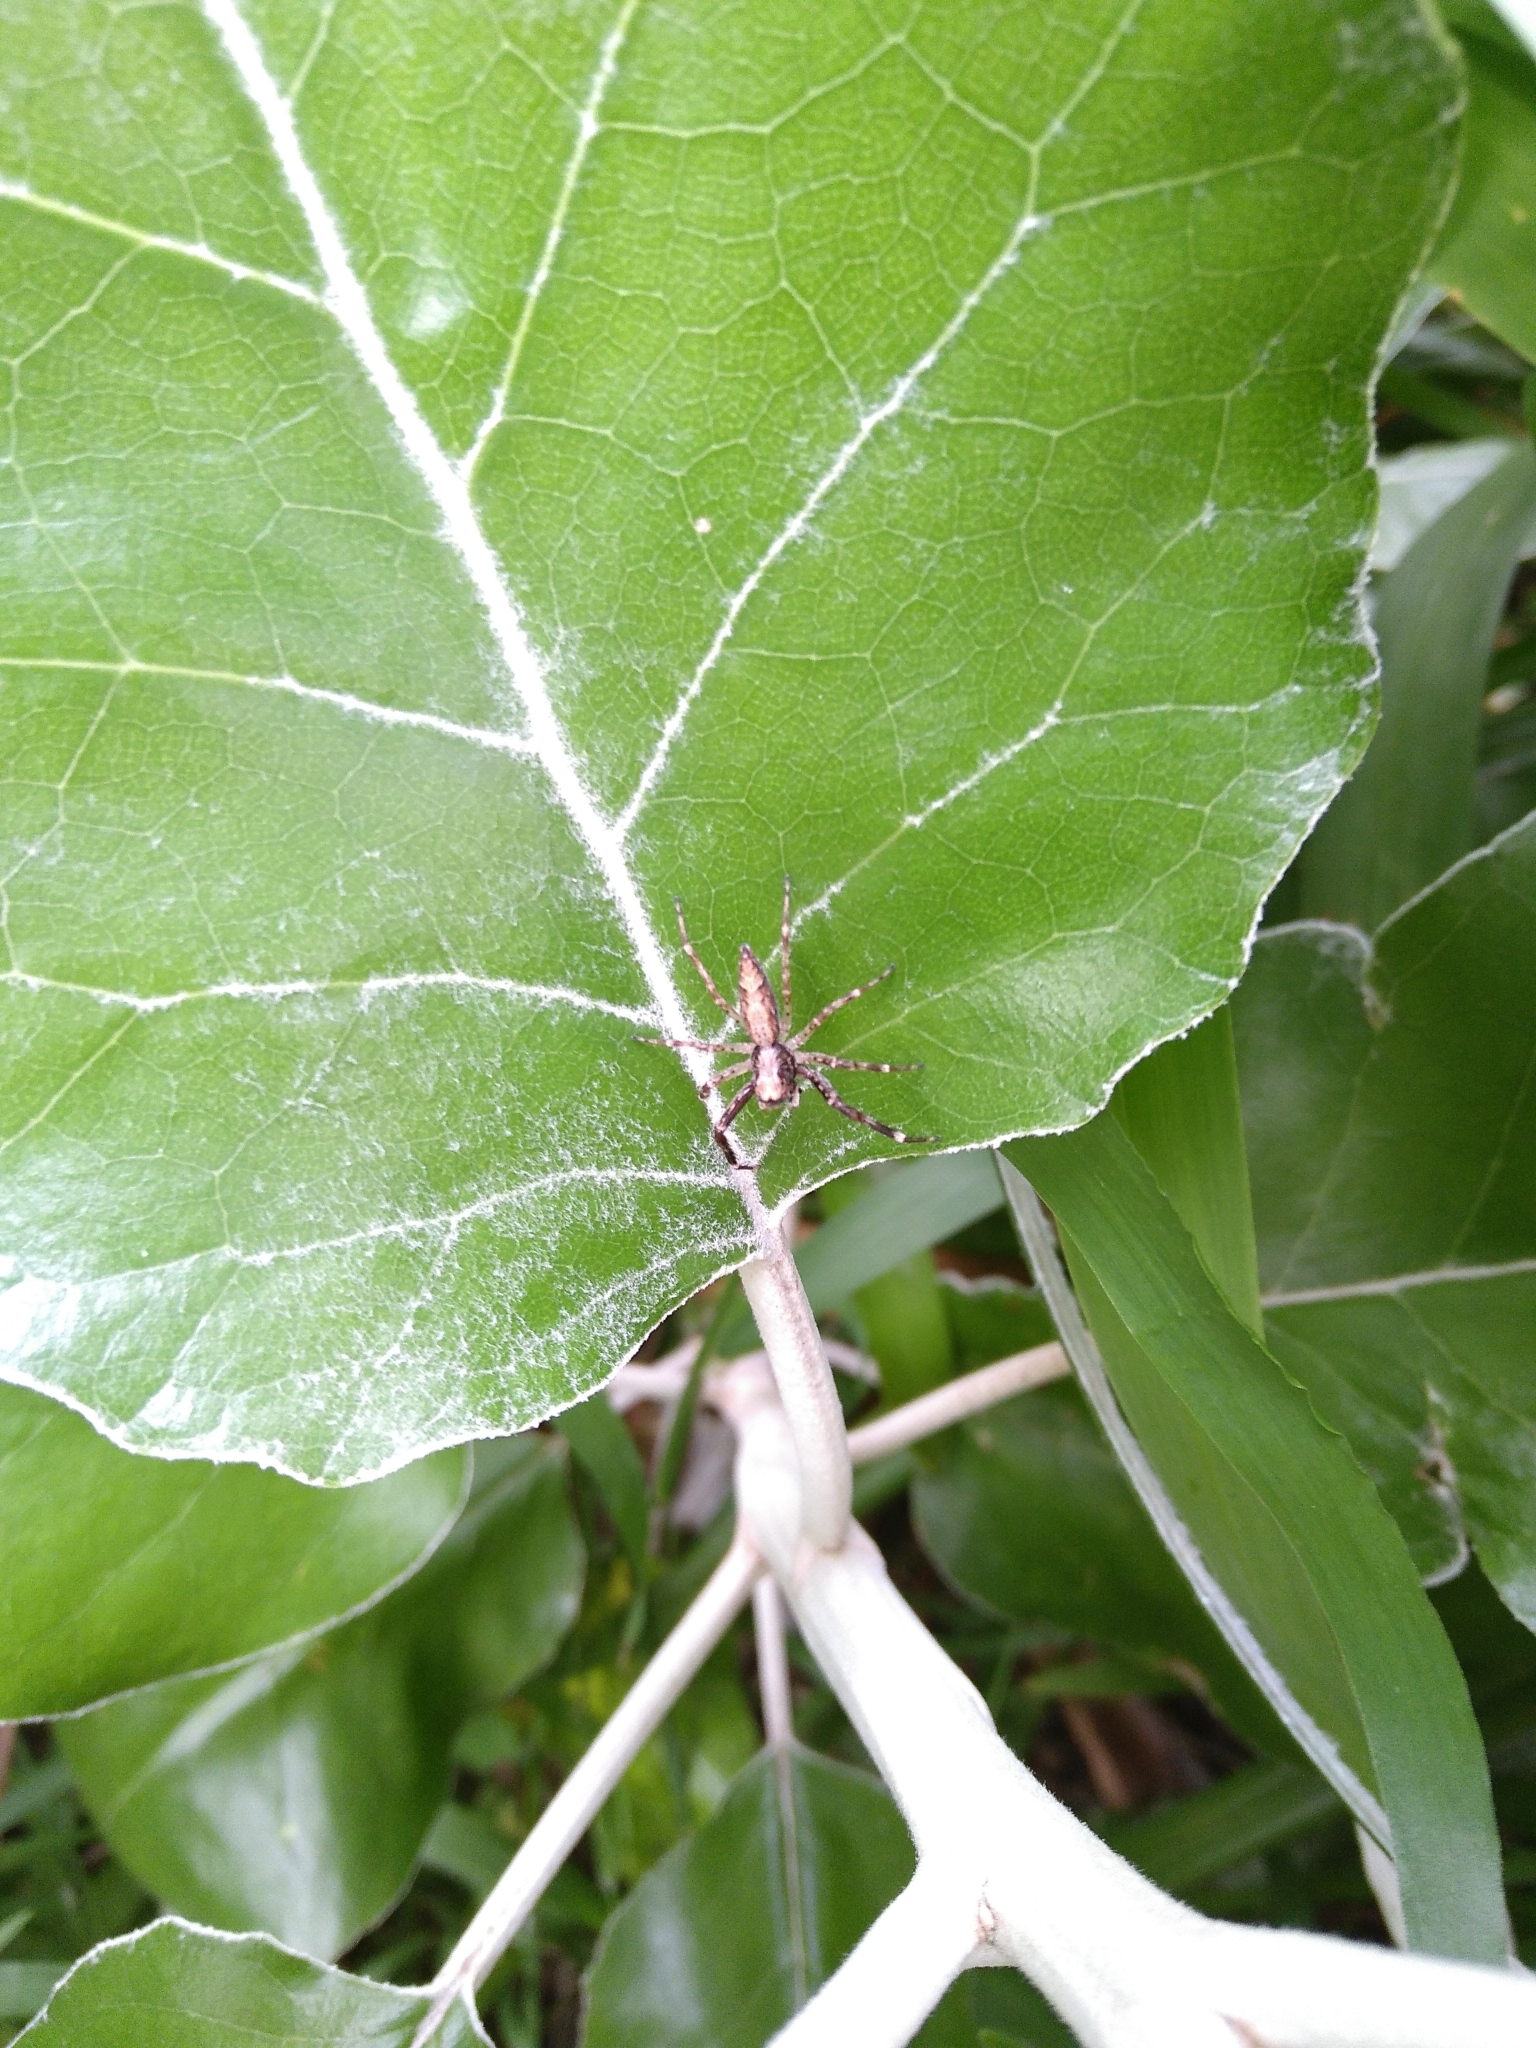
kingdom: Animalia
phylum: Arthropoda
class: Arachnida
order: Araneae
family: Salticidae
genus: Helpis
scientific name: Helpis minitabunda
